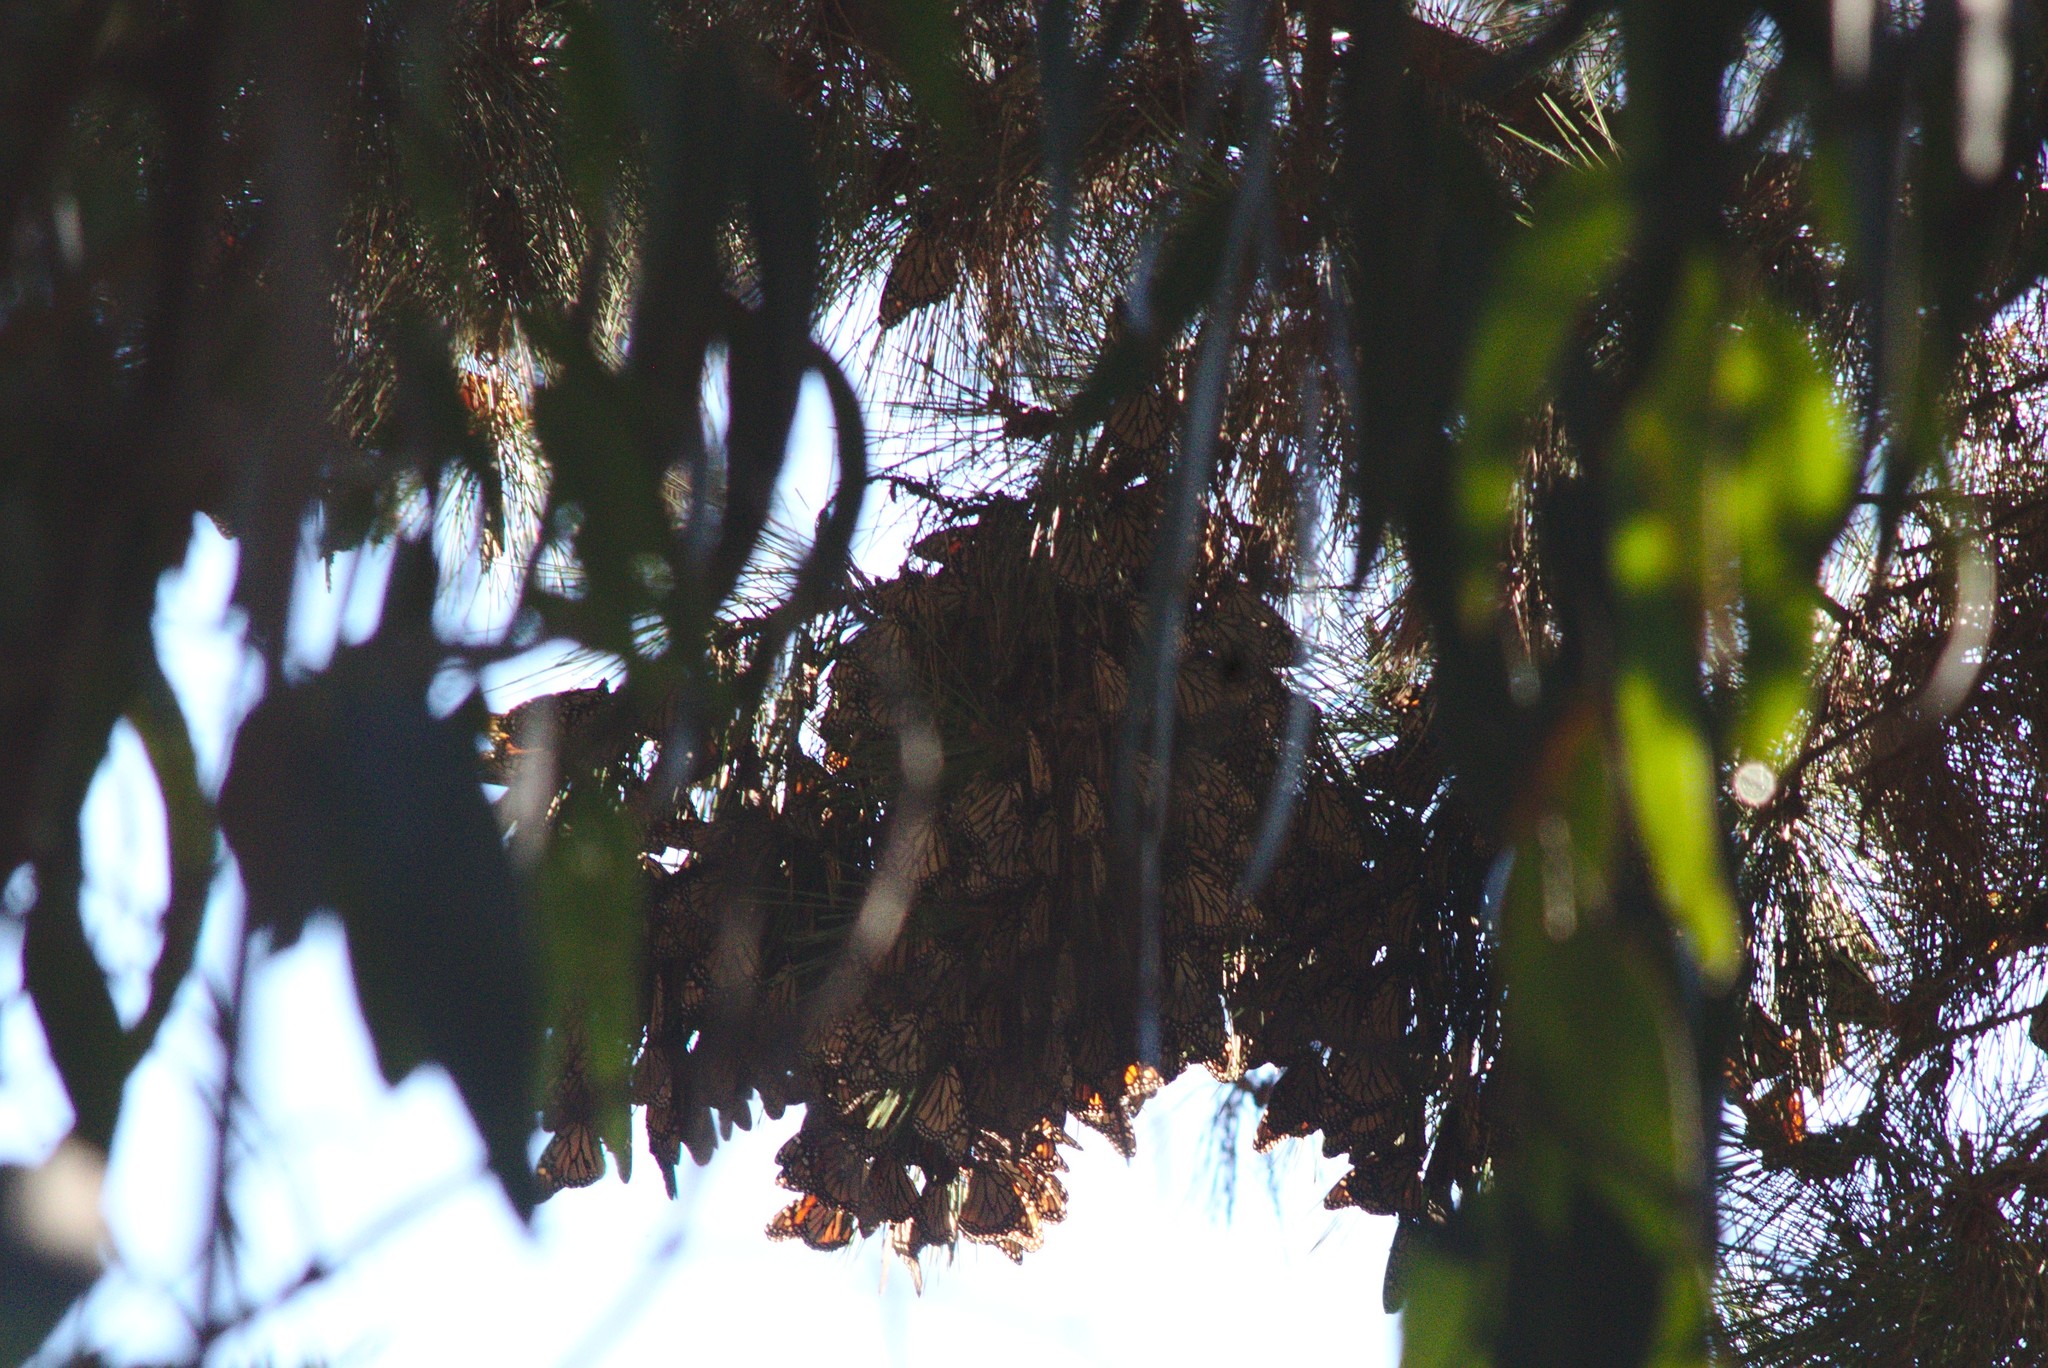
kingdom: Animalia
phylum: Arthropoda
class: Insecta
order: Lepidoptera
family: Nymphalidae
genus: Danaus
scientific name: Danaus plexippus
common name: Monarch
